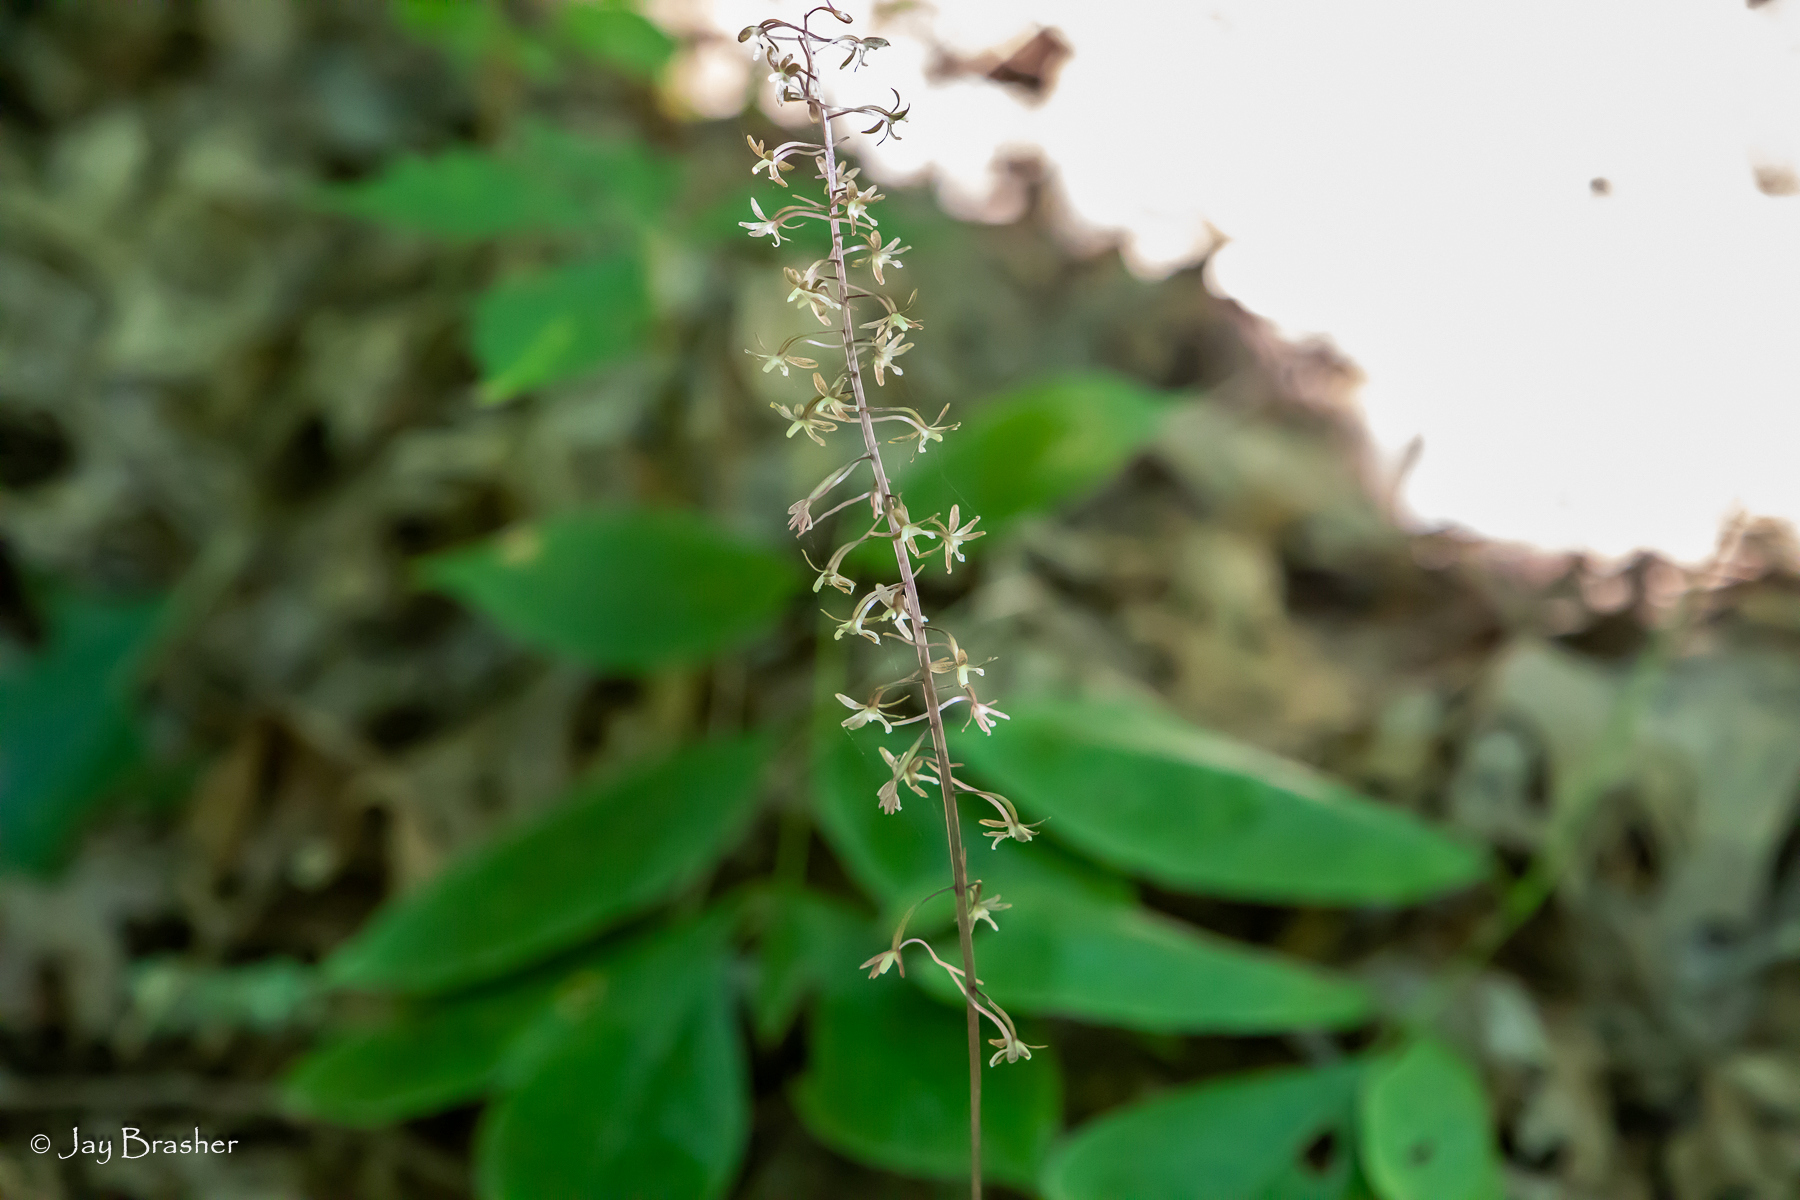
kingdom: Plantae
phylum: Tracheophyta
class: Liliopsida
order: Asparagales
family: Orchidaceae
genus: Tipularia
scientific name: Tipularia discolor
